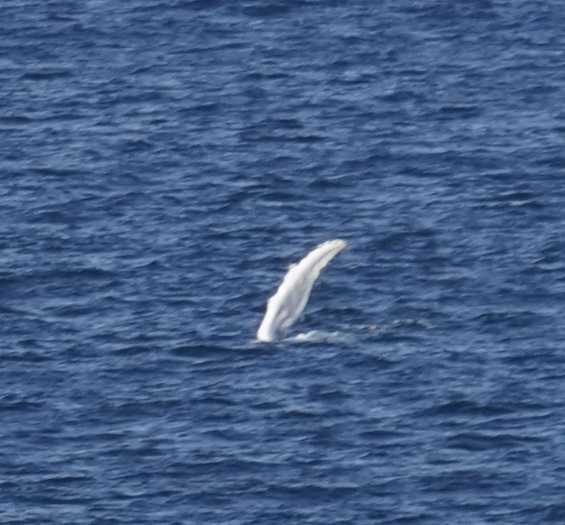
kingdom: Animalia
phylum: Chordata
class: Mammalia
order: Cetacea
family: Balaenopteridae
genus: Megaptera
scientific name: Megaptera novaeangliae
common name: Humpback whale
